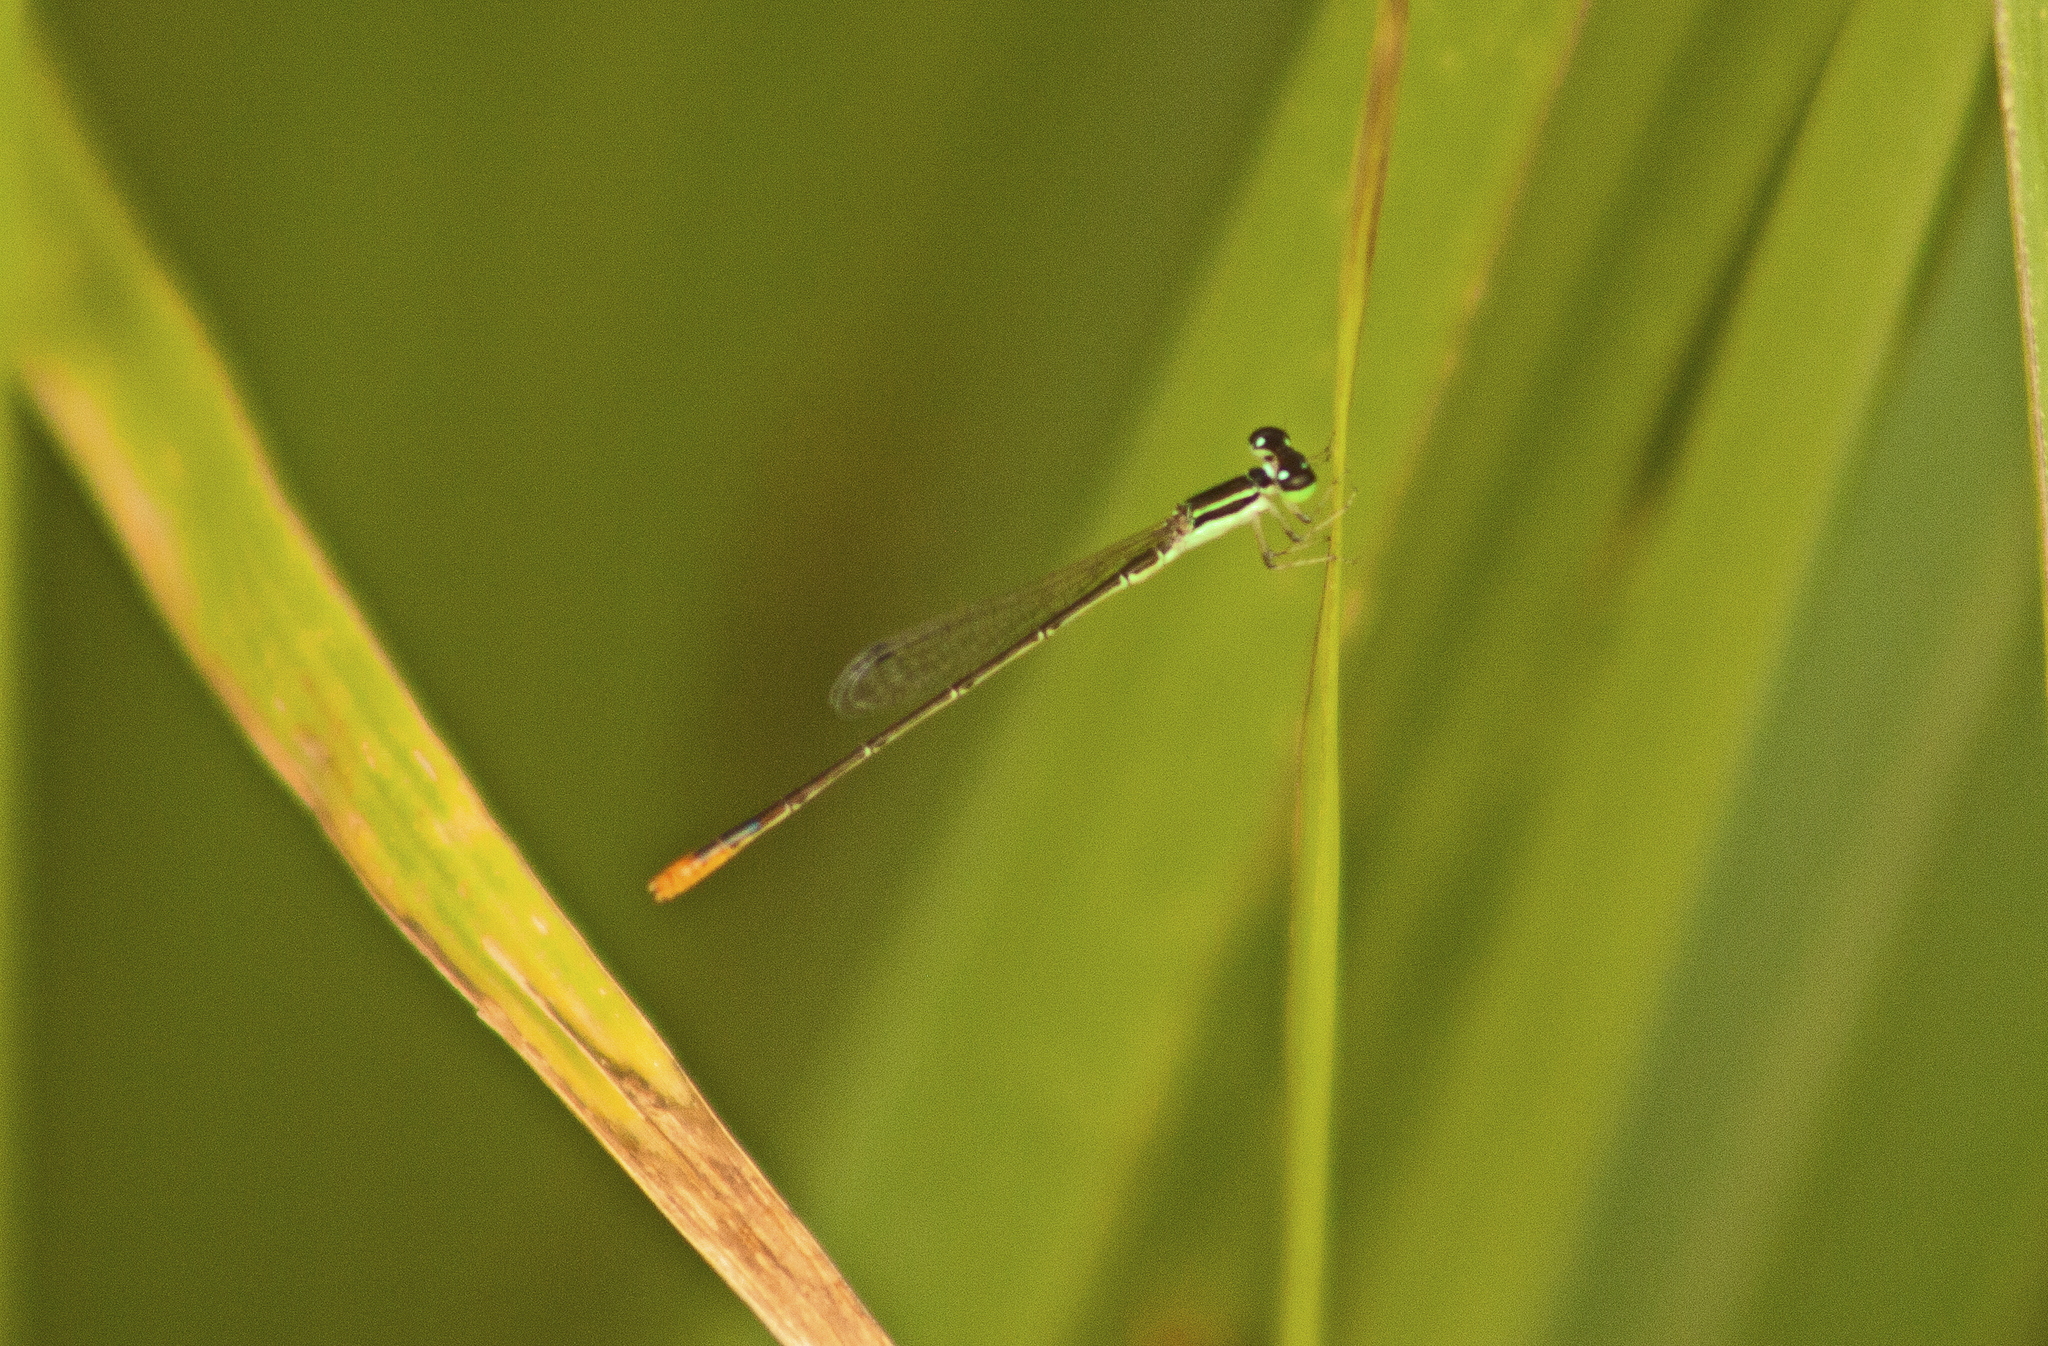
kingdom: Animalia
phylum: Arthropoda
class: Insecta
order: Odonata
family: Coenagrionidae
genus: Agriocnemis
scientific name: Agriocnemis pygmaea
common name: Pygmy wisp
